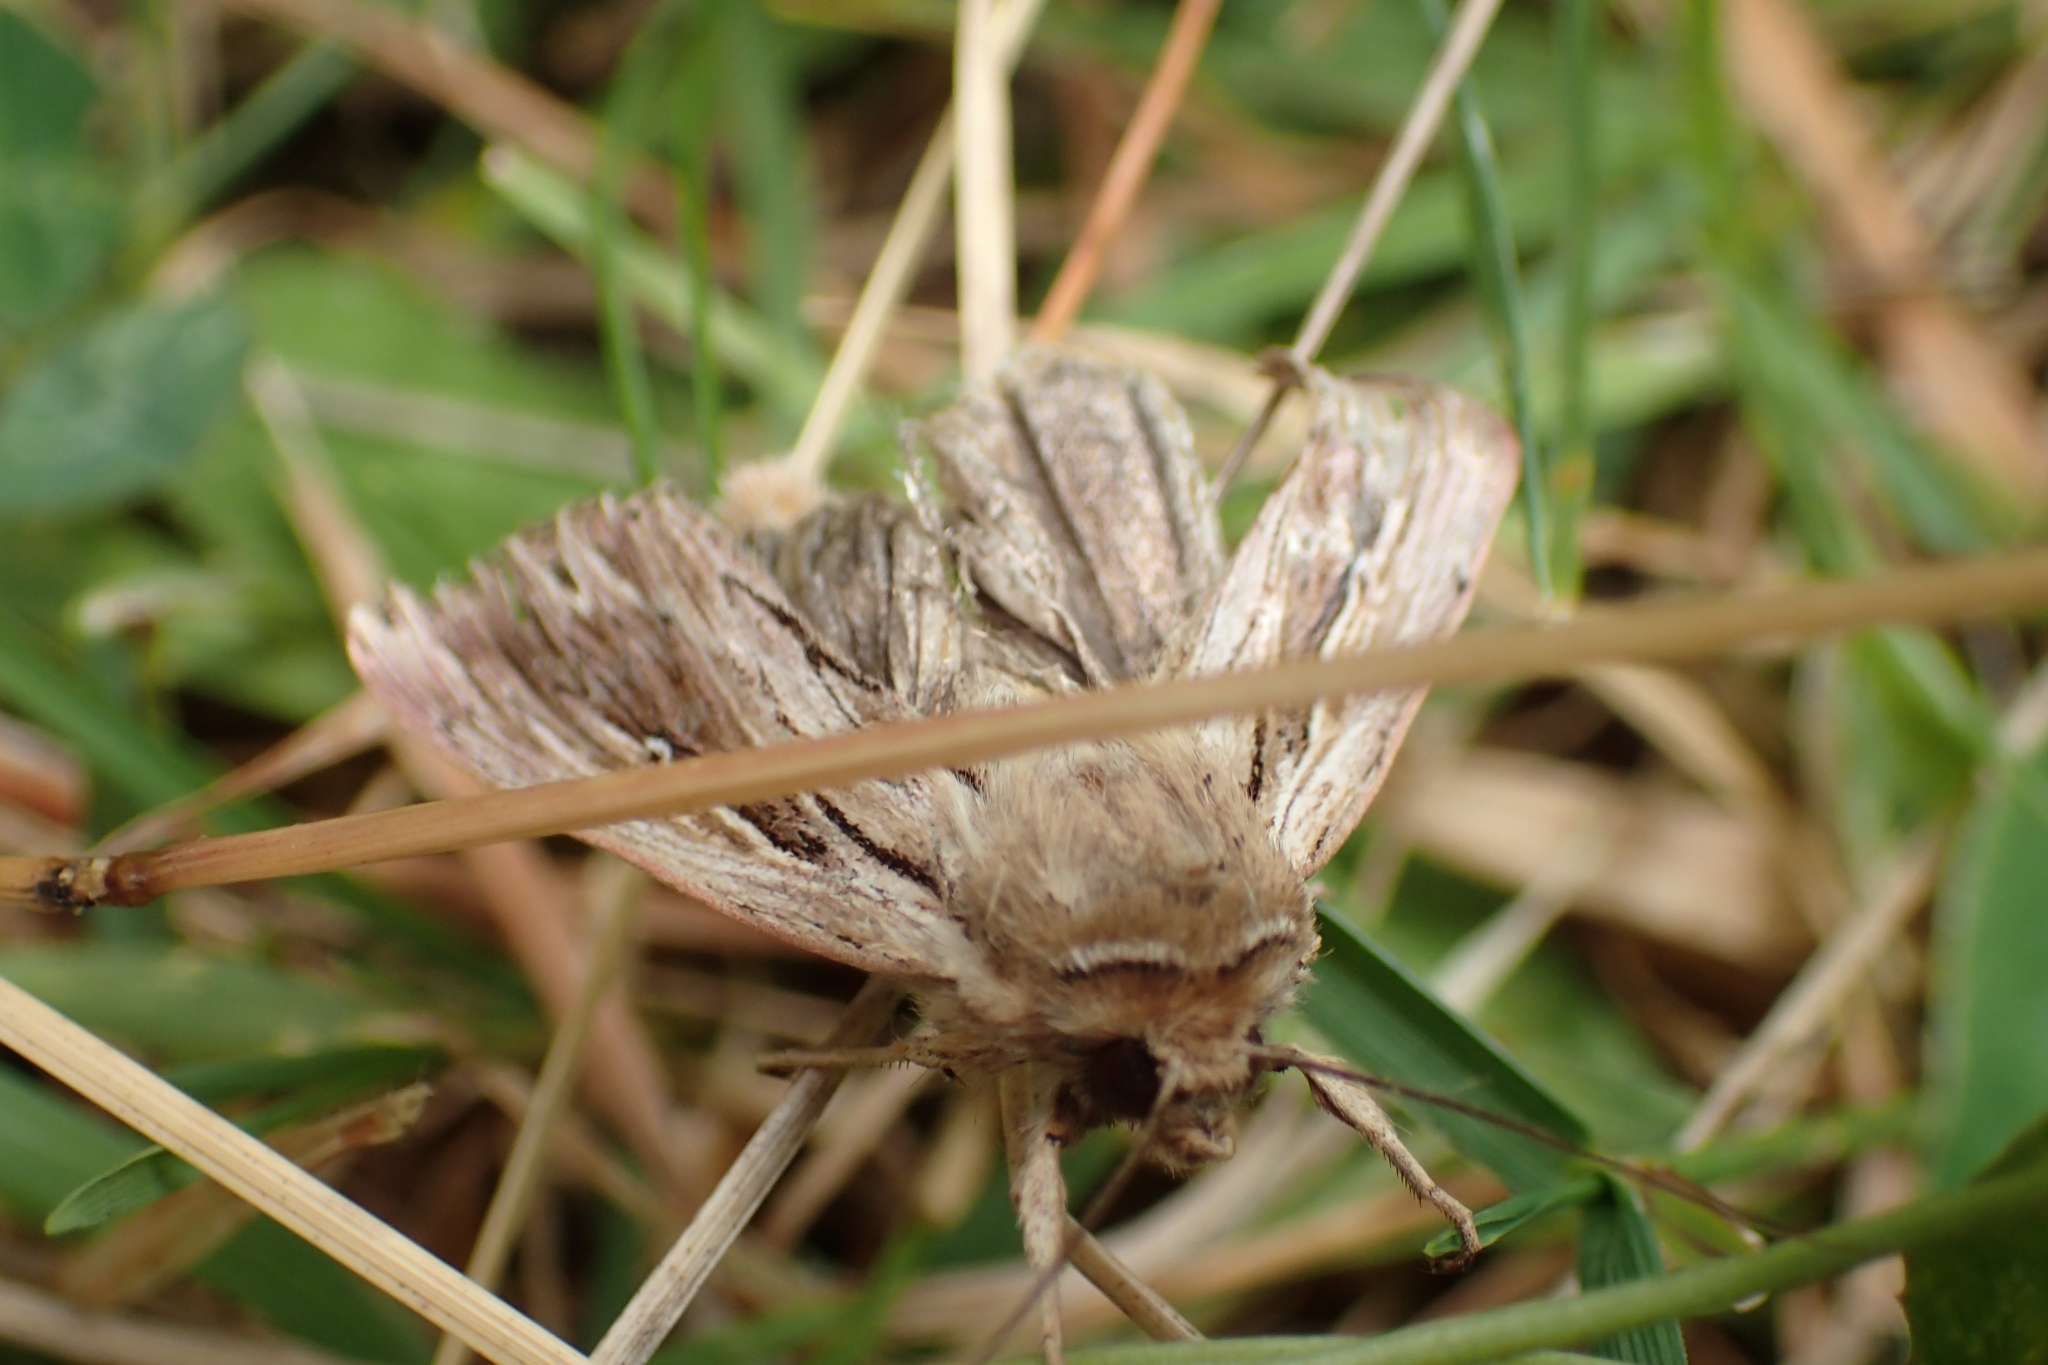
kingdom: Animalia
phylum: Arthropoda
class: Insecta
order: Lepidoptera
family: Noctuidae
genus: Persectania
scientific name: Persectania aversa
